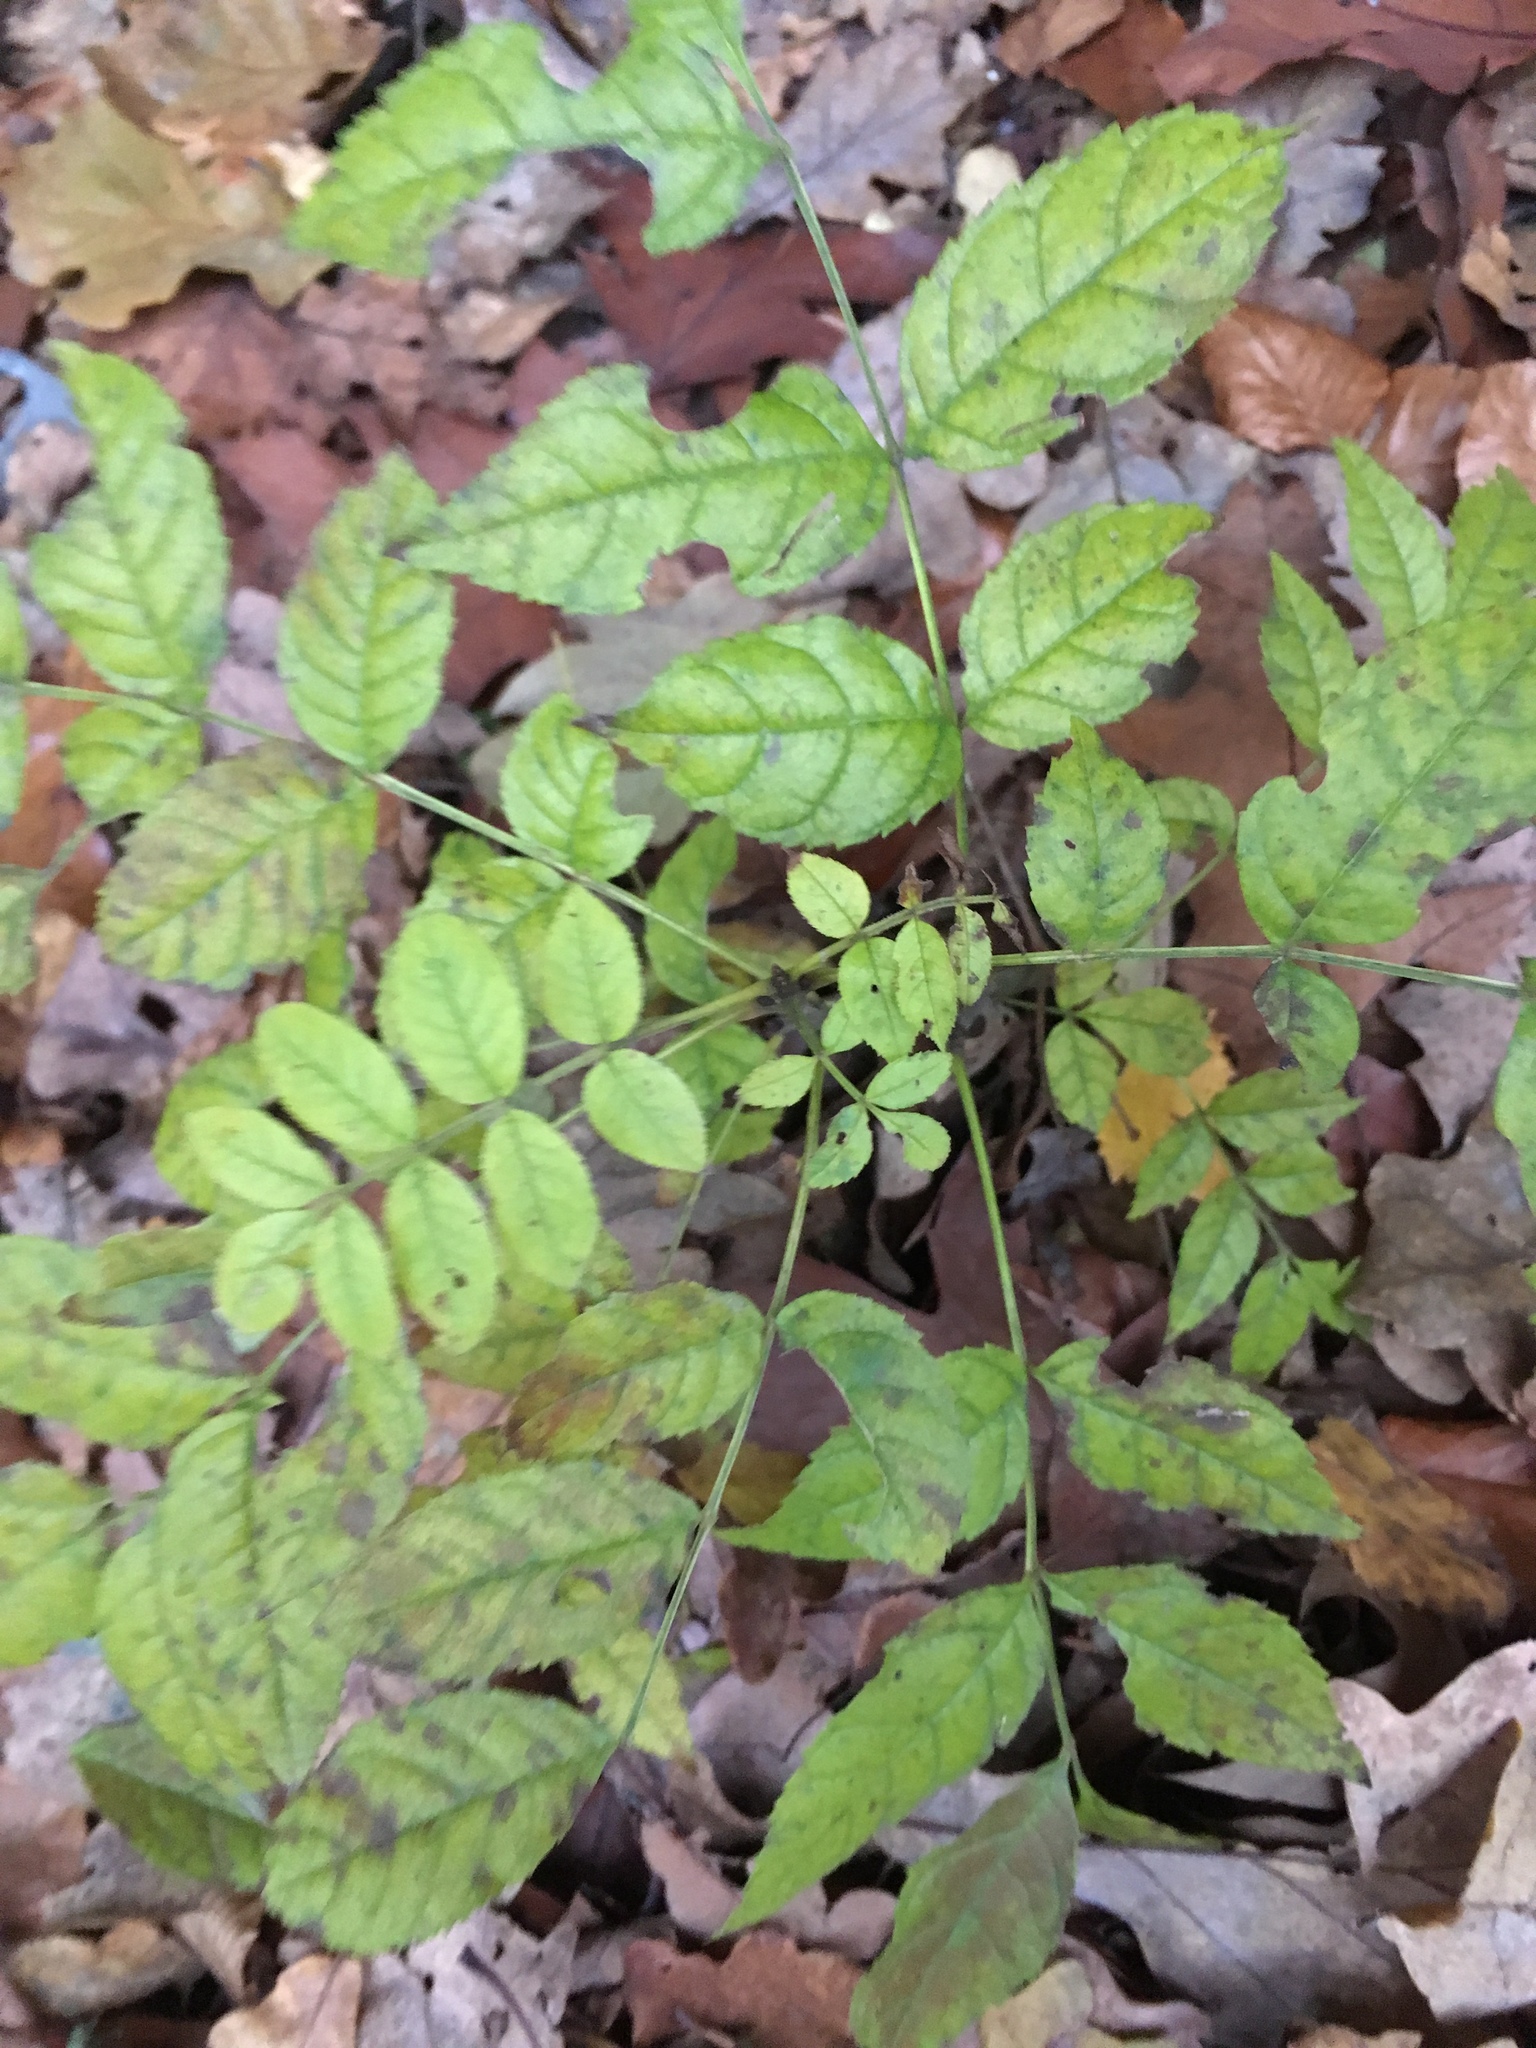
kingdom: Plantae
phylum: Tracheophyta
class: Magnoliopsida
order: Lamiales
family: Oleaceae
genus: Fraxinus
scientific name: Fraxinus excelsior
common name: European ash
